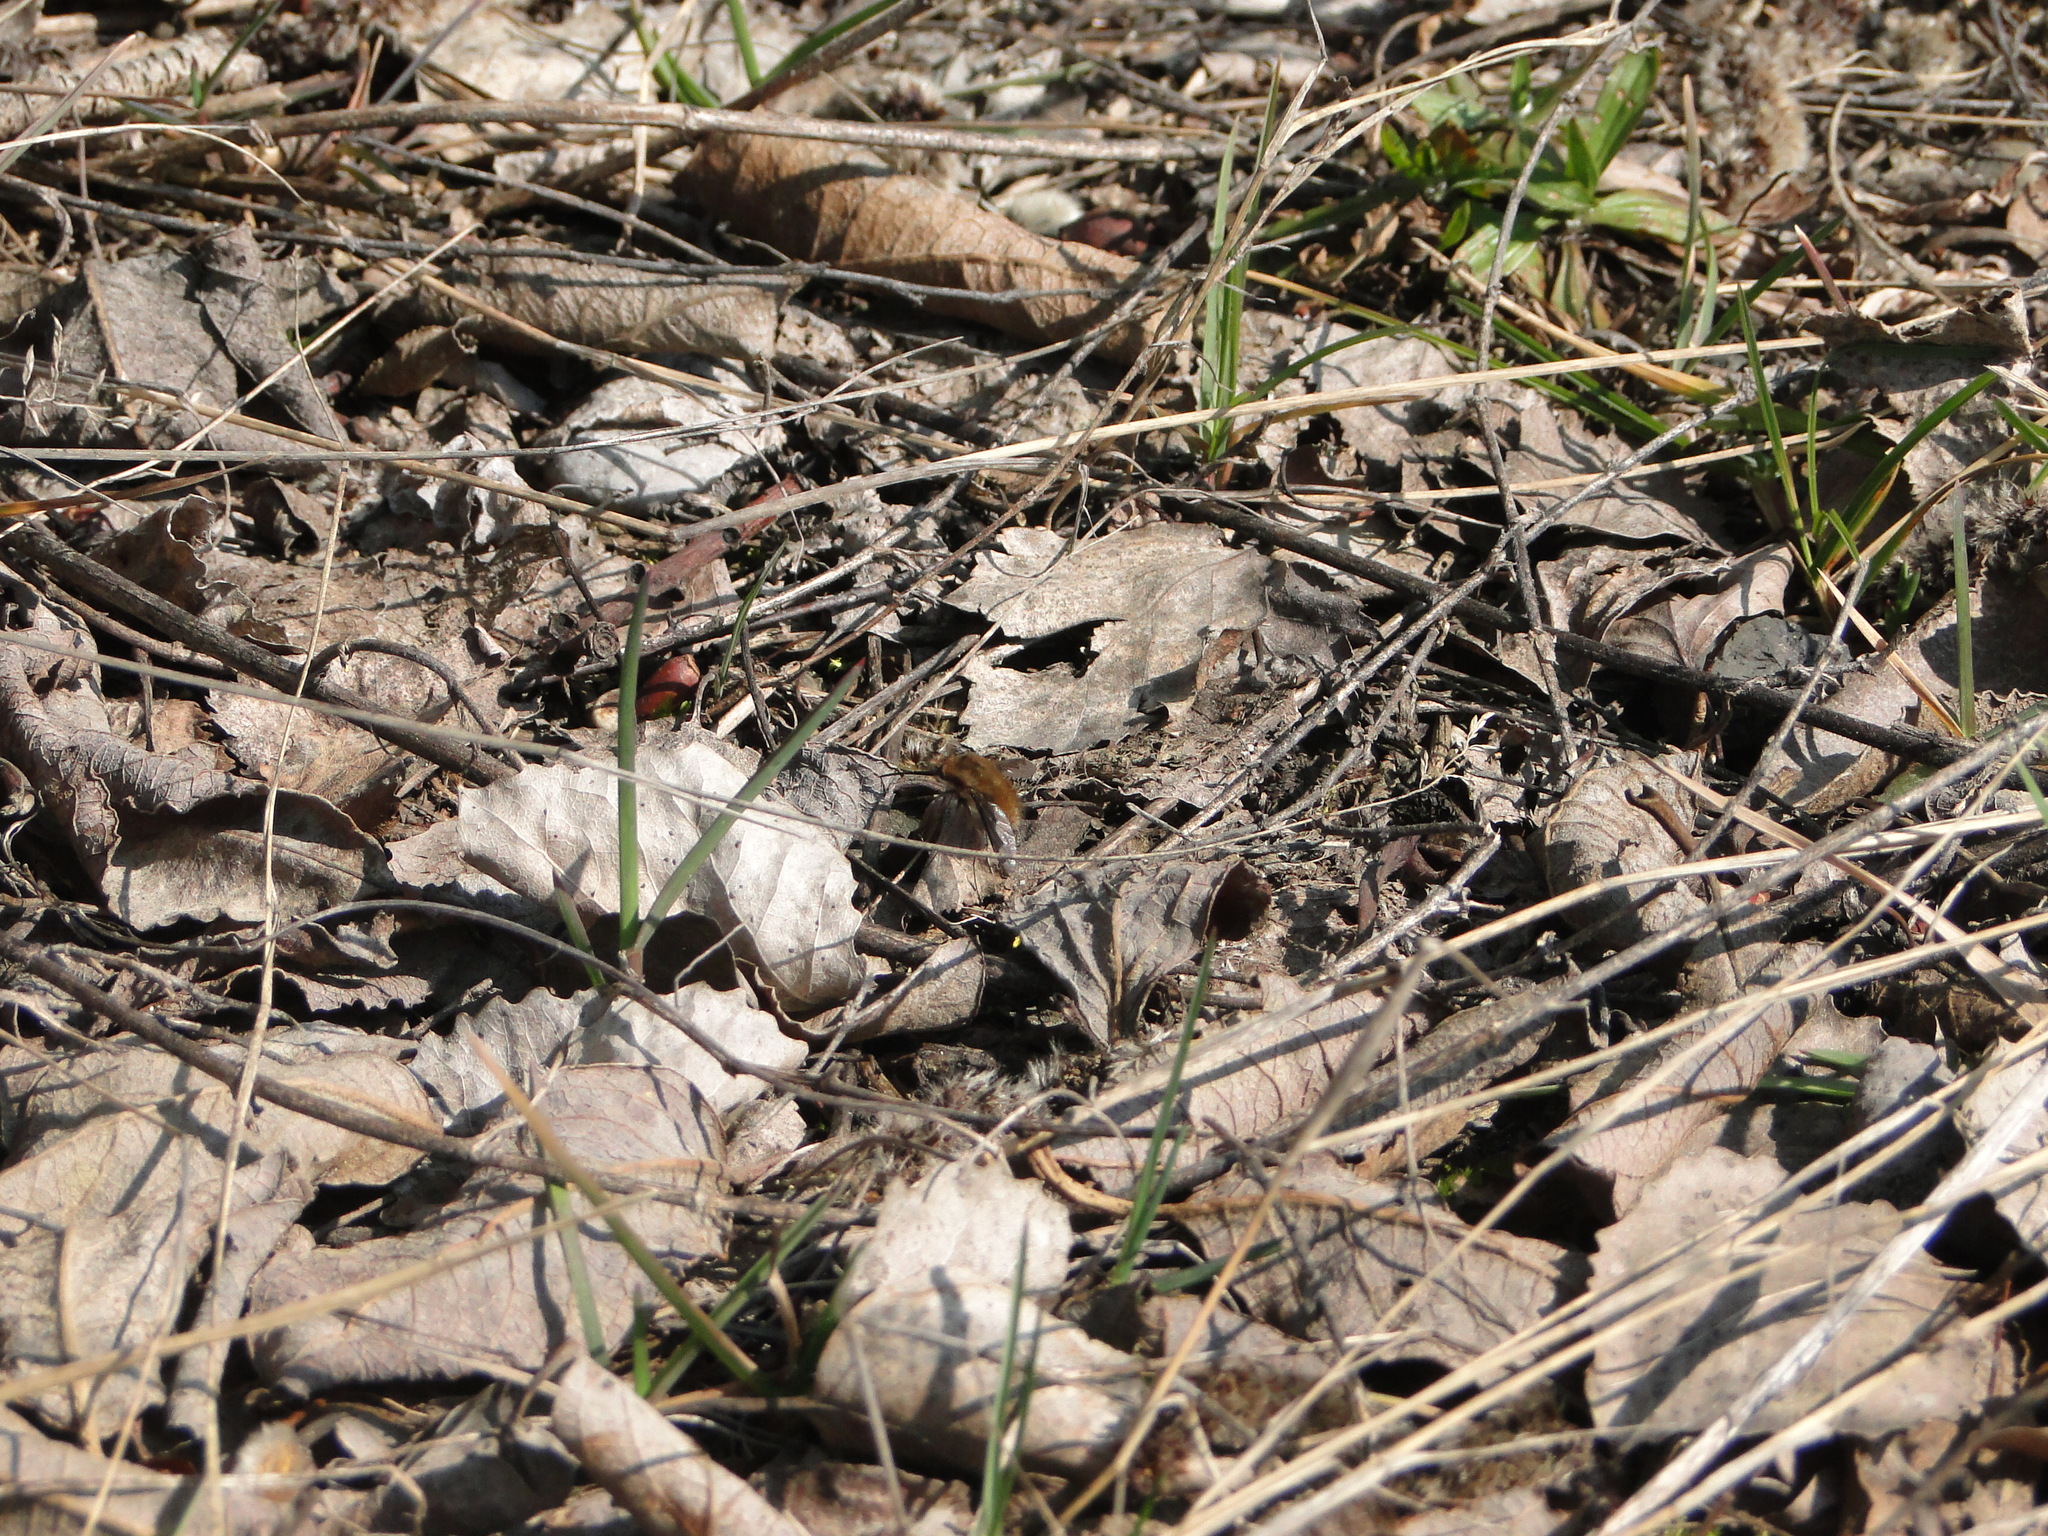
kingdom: Animalia
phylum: Arthropoda
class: Insecta
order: Diptera
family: Bombyliidae
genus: Bombylius
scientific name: Bombylius major
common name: Bee fly
